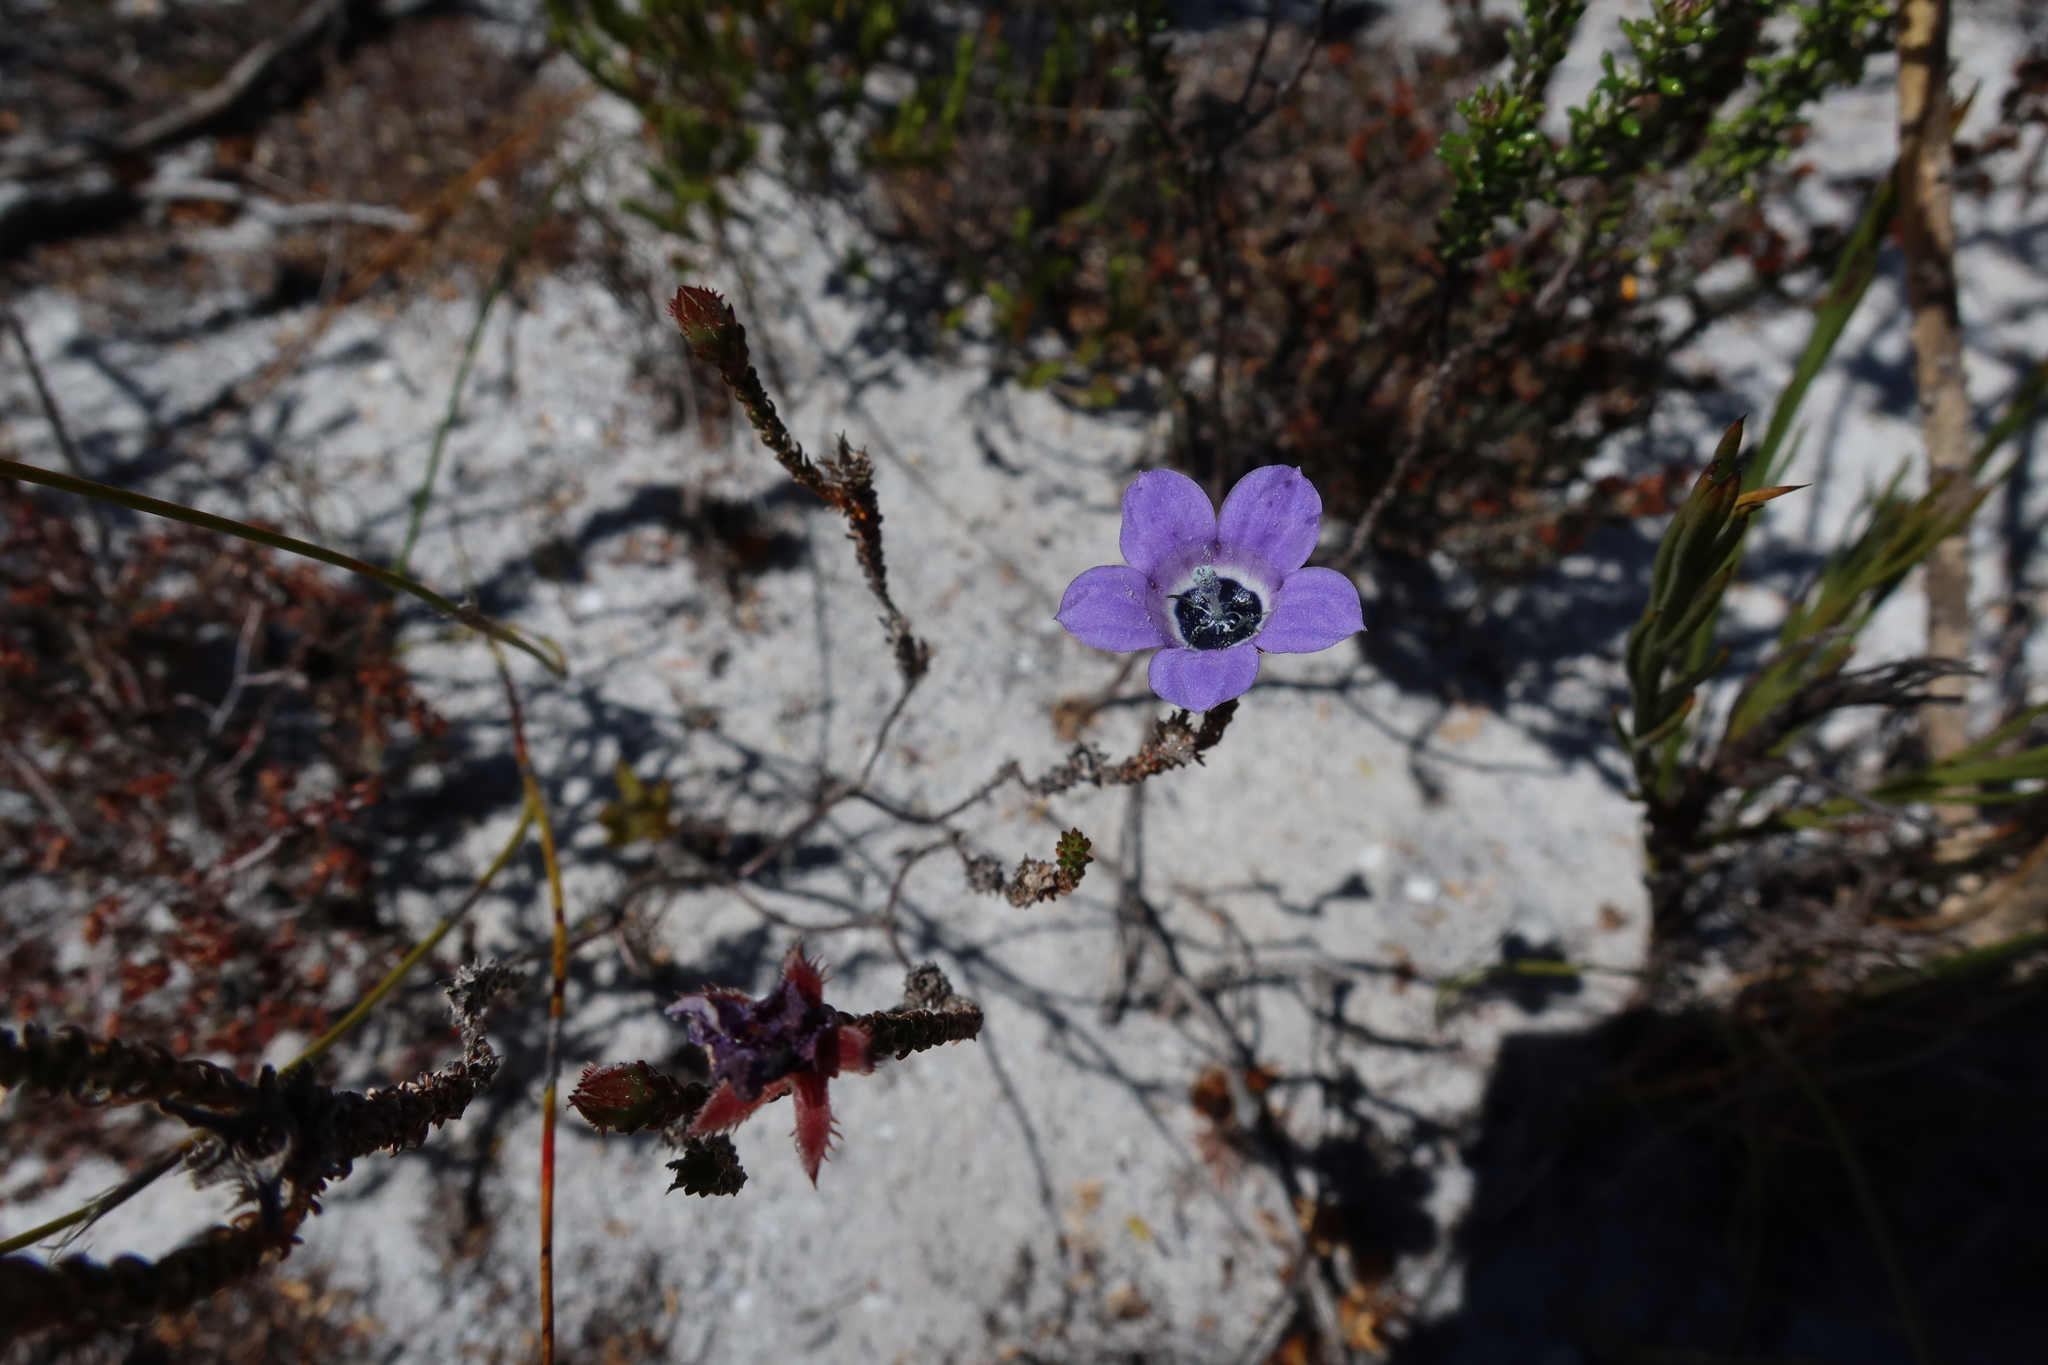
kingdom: Plantae
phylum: Tracheophyta
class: Magnoliopsida
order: Asterales
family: Campanulaceae
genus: Roella
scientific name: Roella triflora
